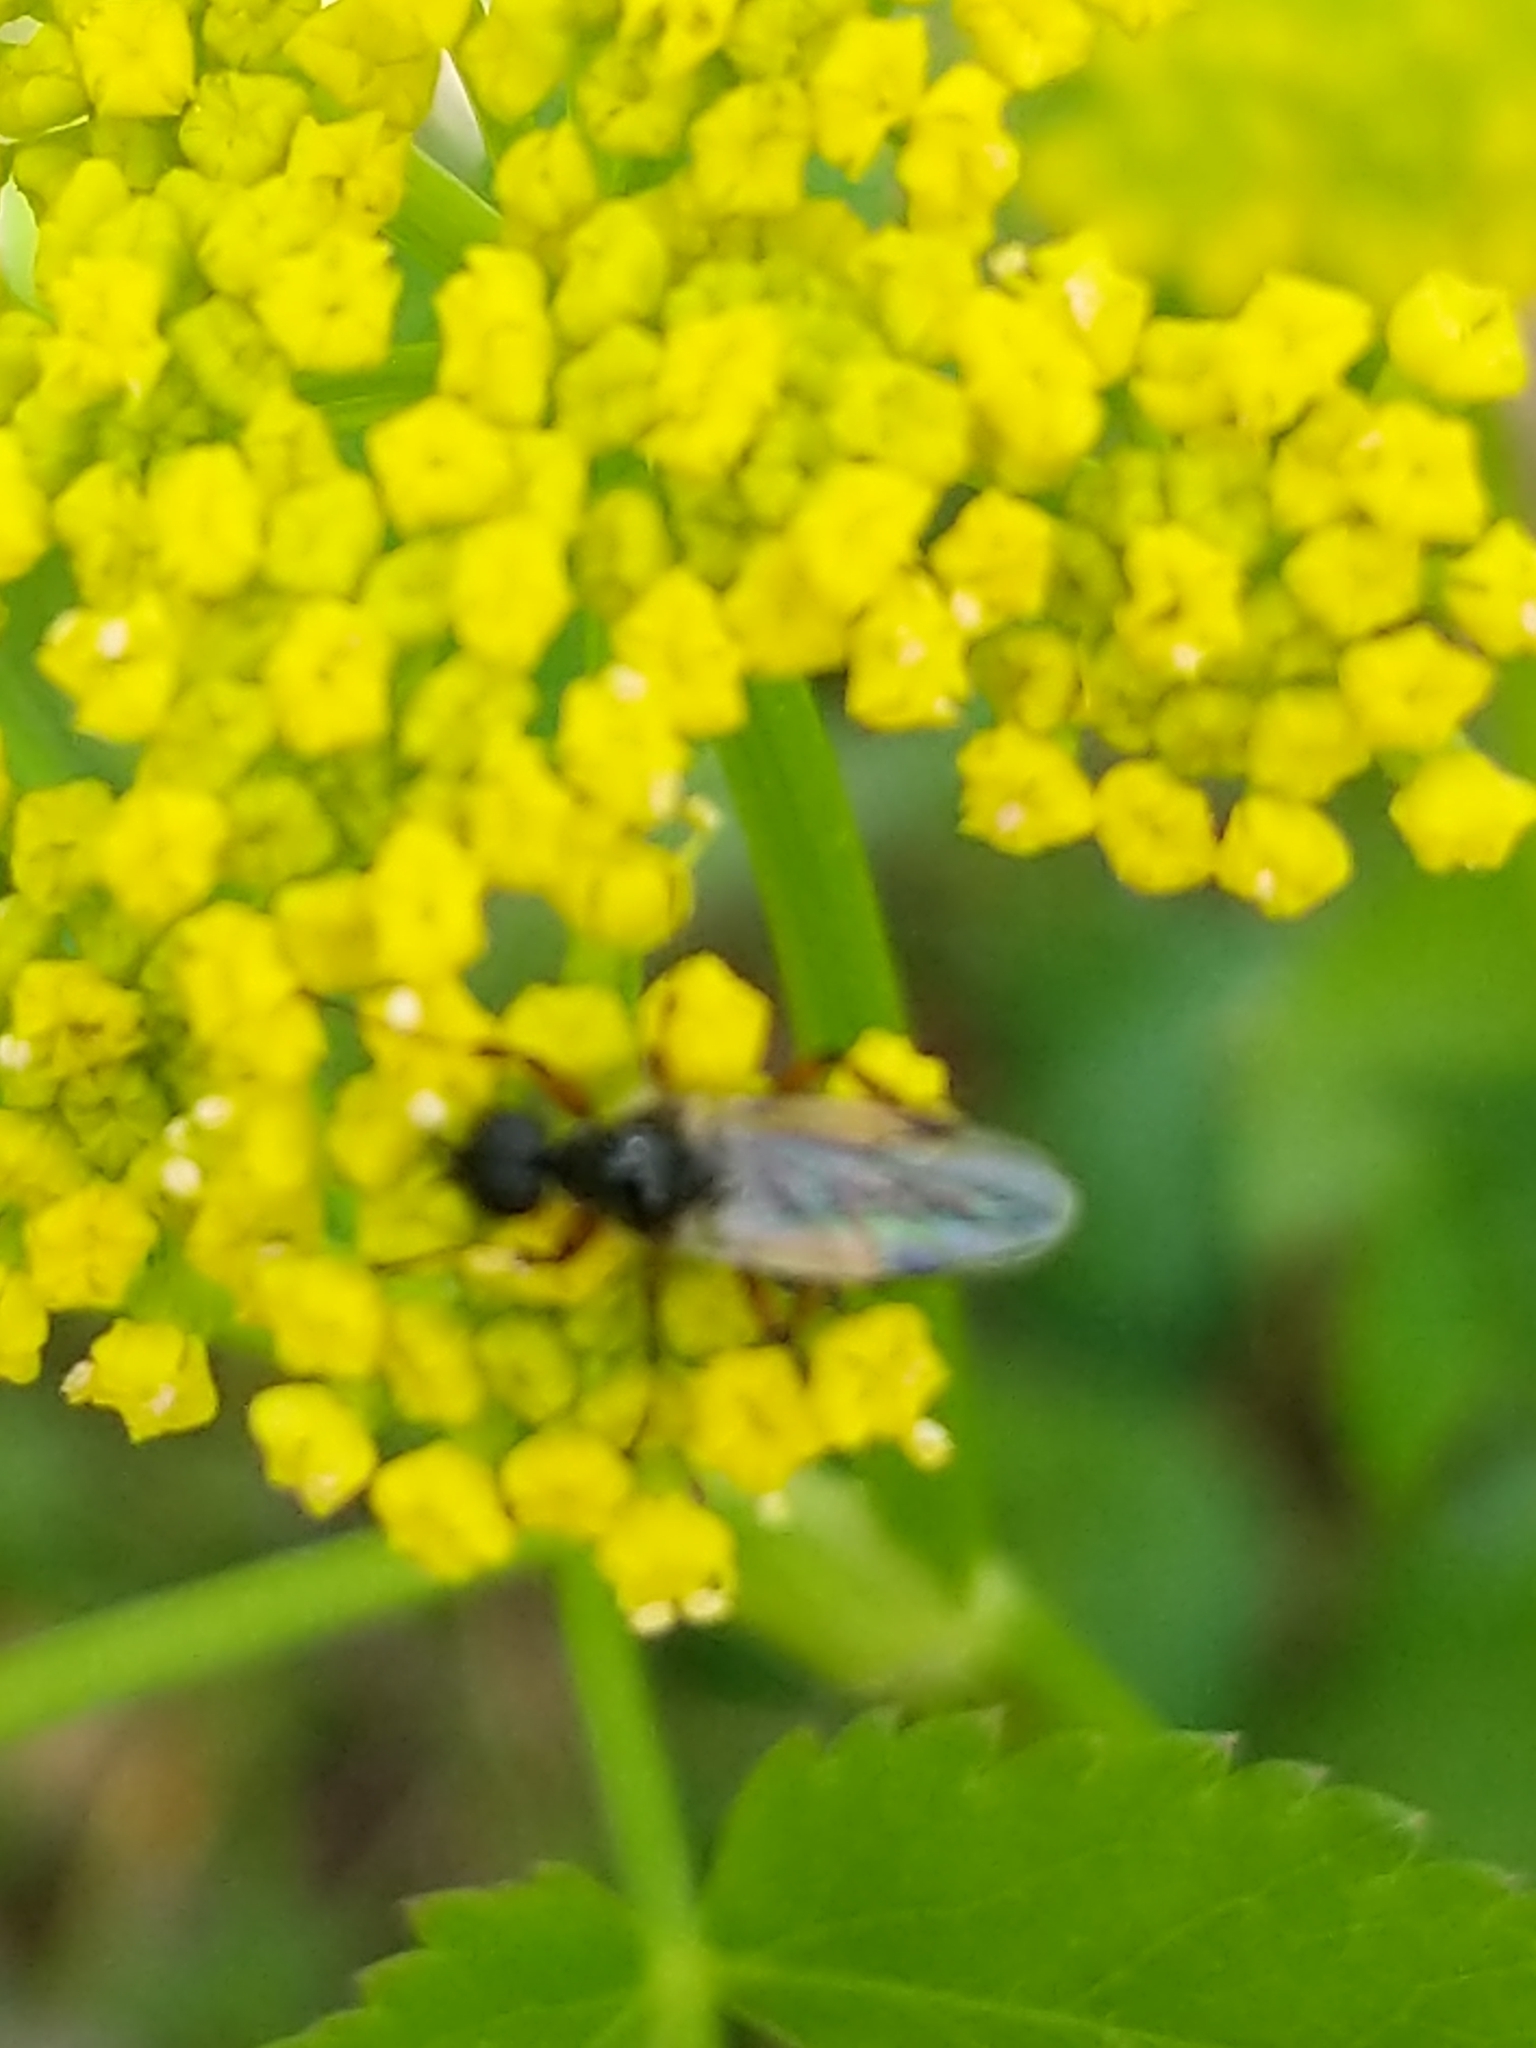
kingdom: Animalia
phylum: Arthropoda
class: Insecta
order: Diptera
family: Bibionidae
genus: Bibio
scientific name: Bibio
